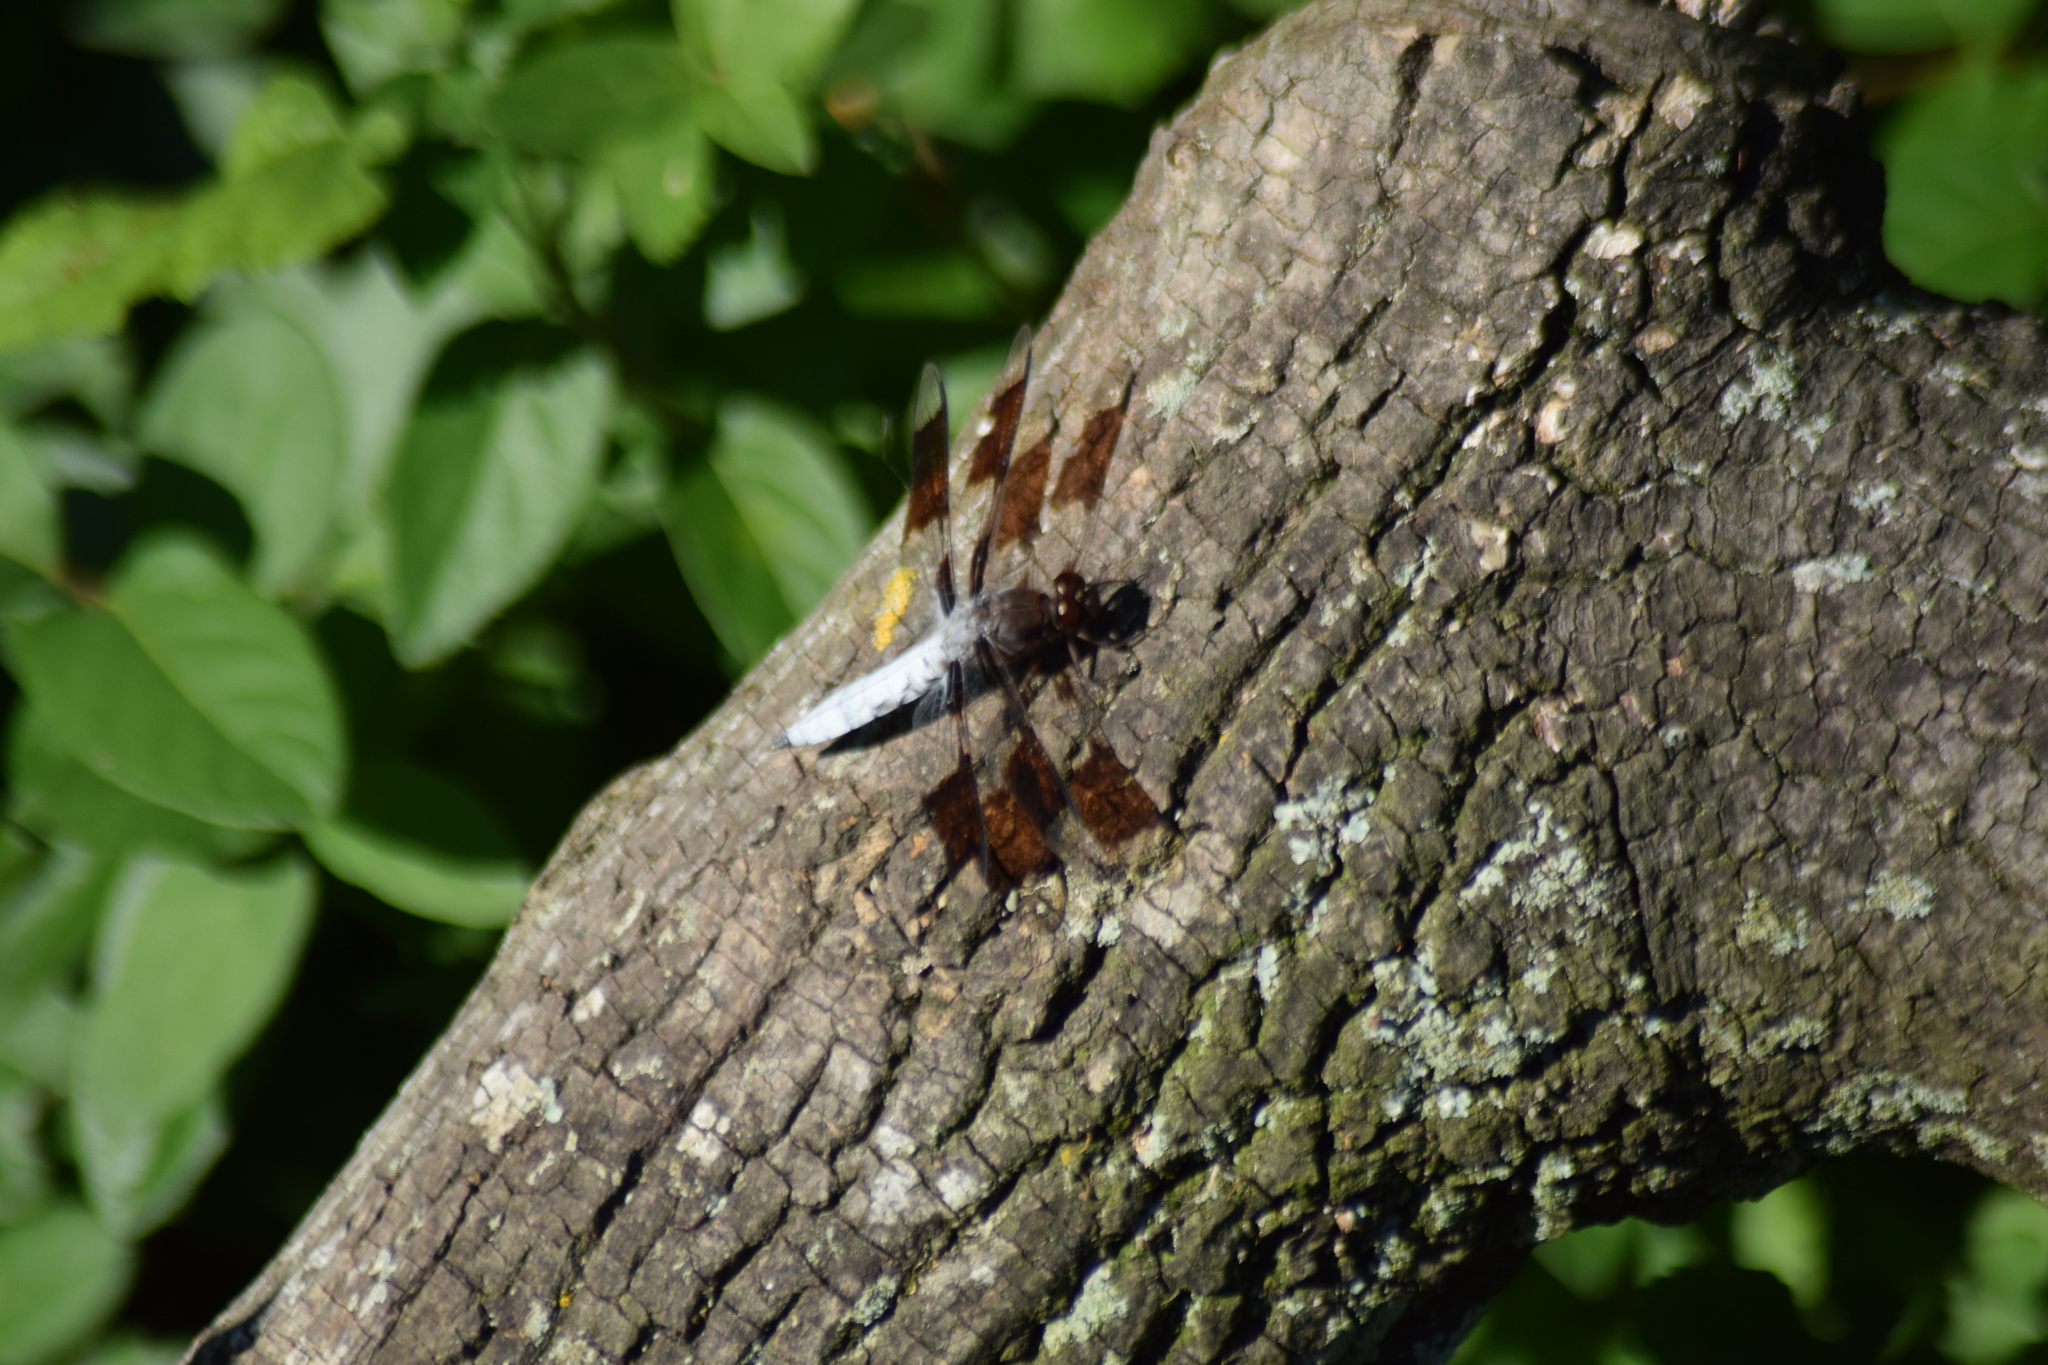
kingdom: Animalia
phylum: Arthropoda
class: Insecta
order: Odonata
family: Libellulidae
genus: Plathemis
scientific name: Plathemis lydia
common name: Common whitetail
